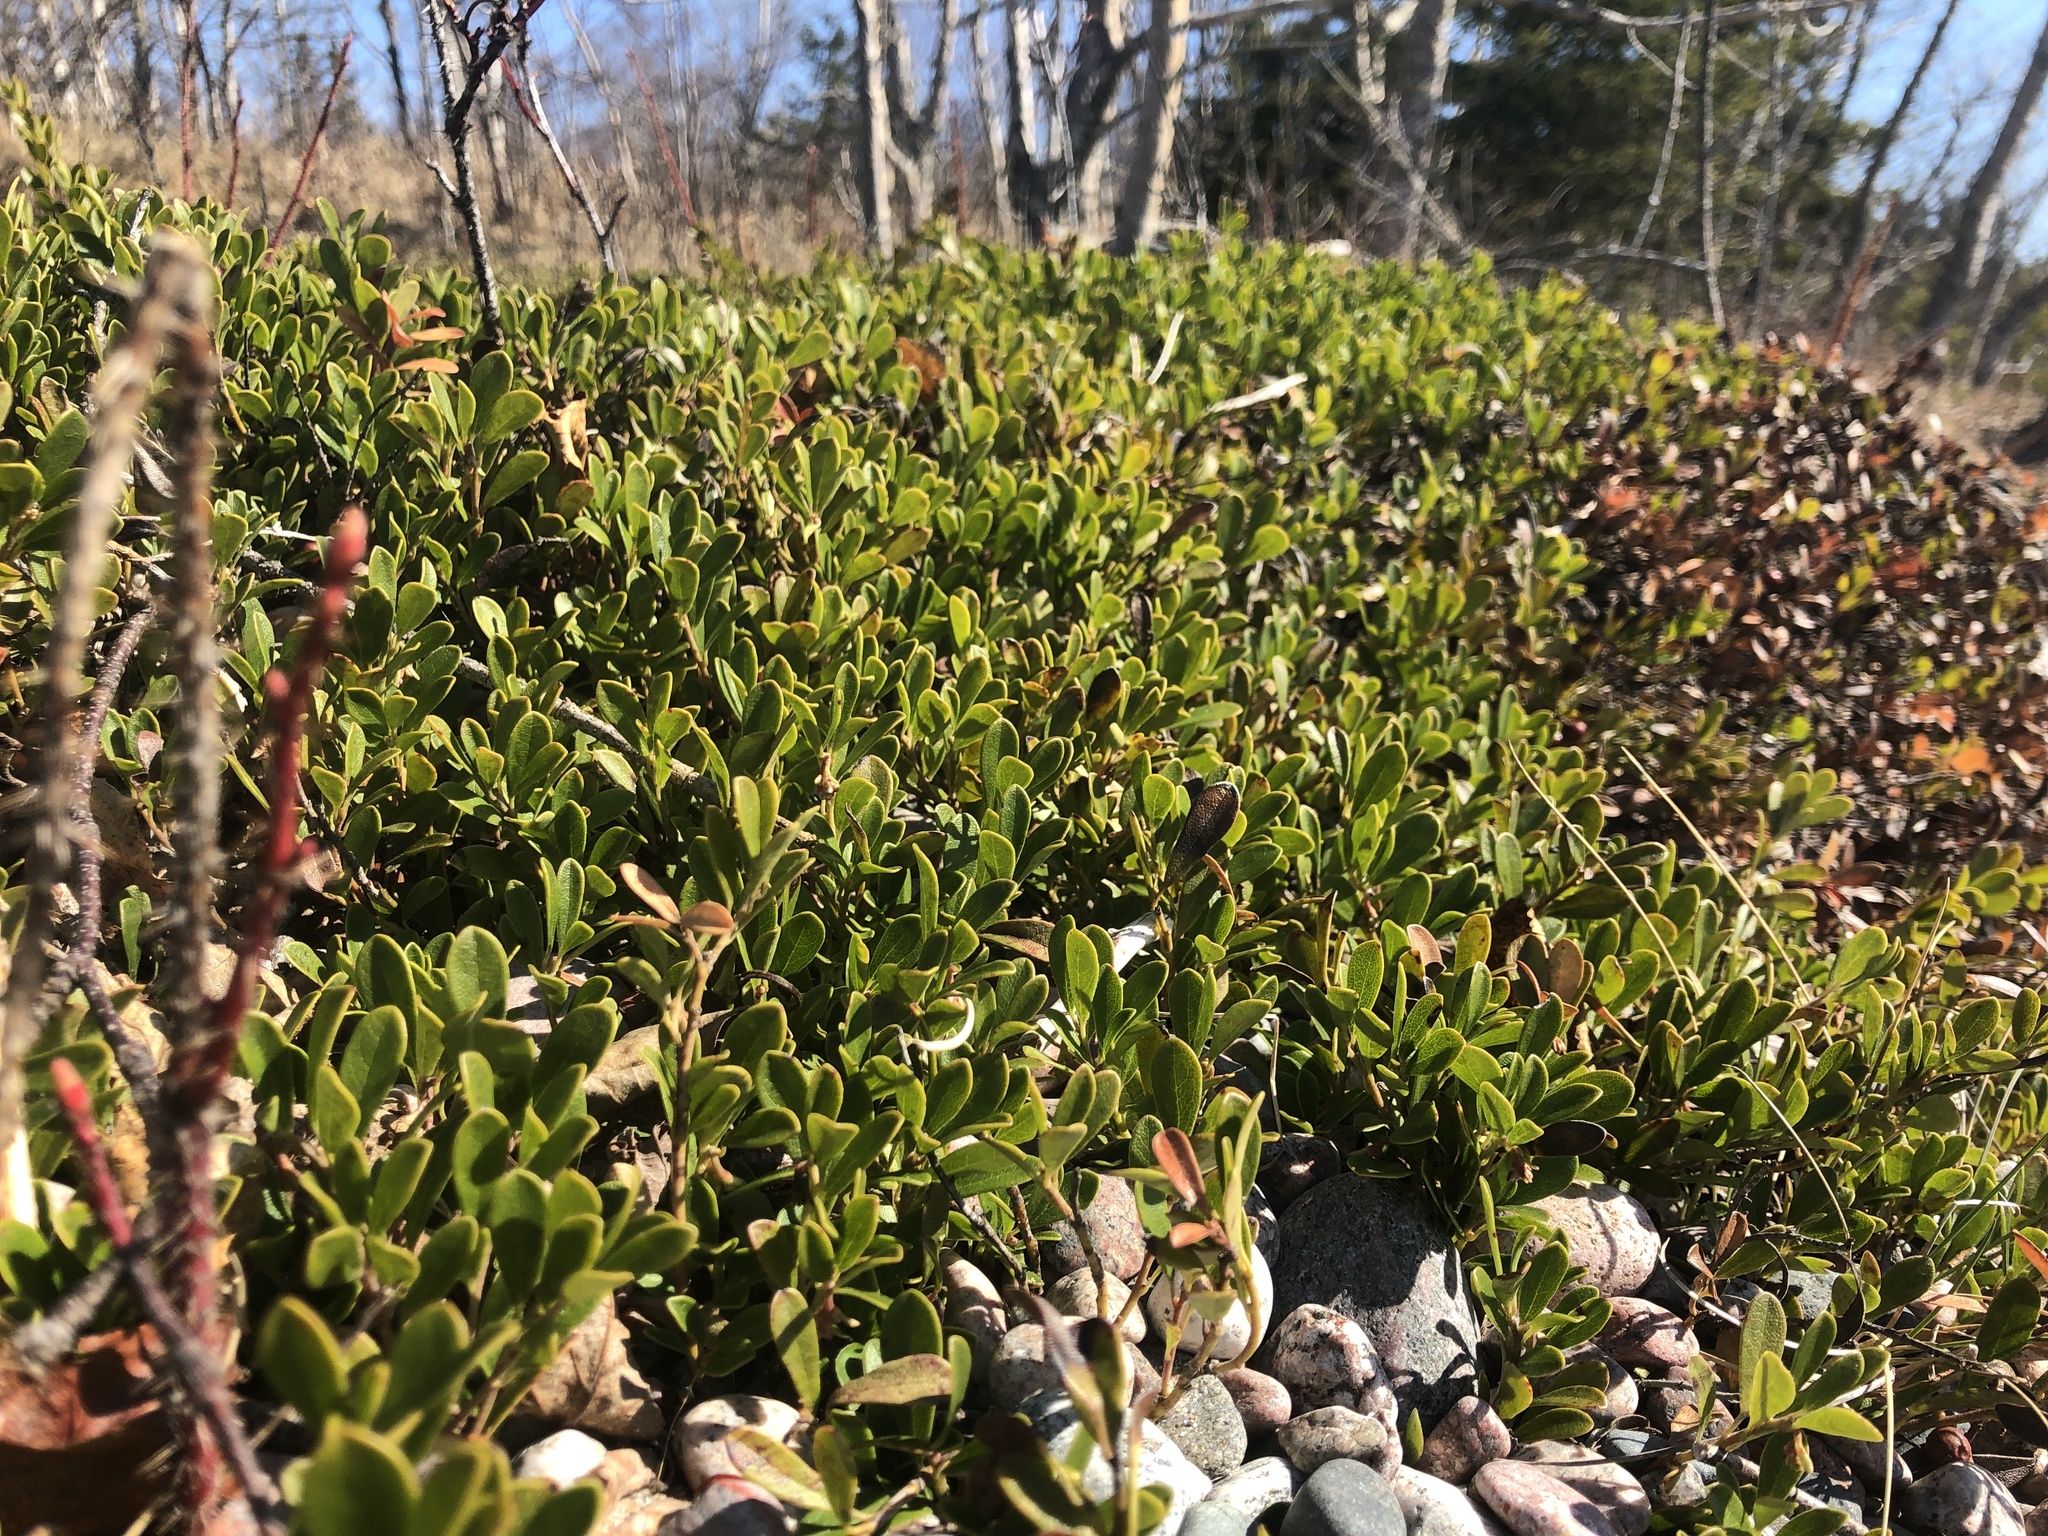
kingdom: Plantae
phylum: Tracheophyta
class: Magnoliopsida
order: Ericales
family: Ericaceae
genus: Arctostaphylos
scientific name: Arctostaphylos uva-ursi
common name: Bearberry
